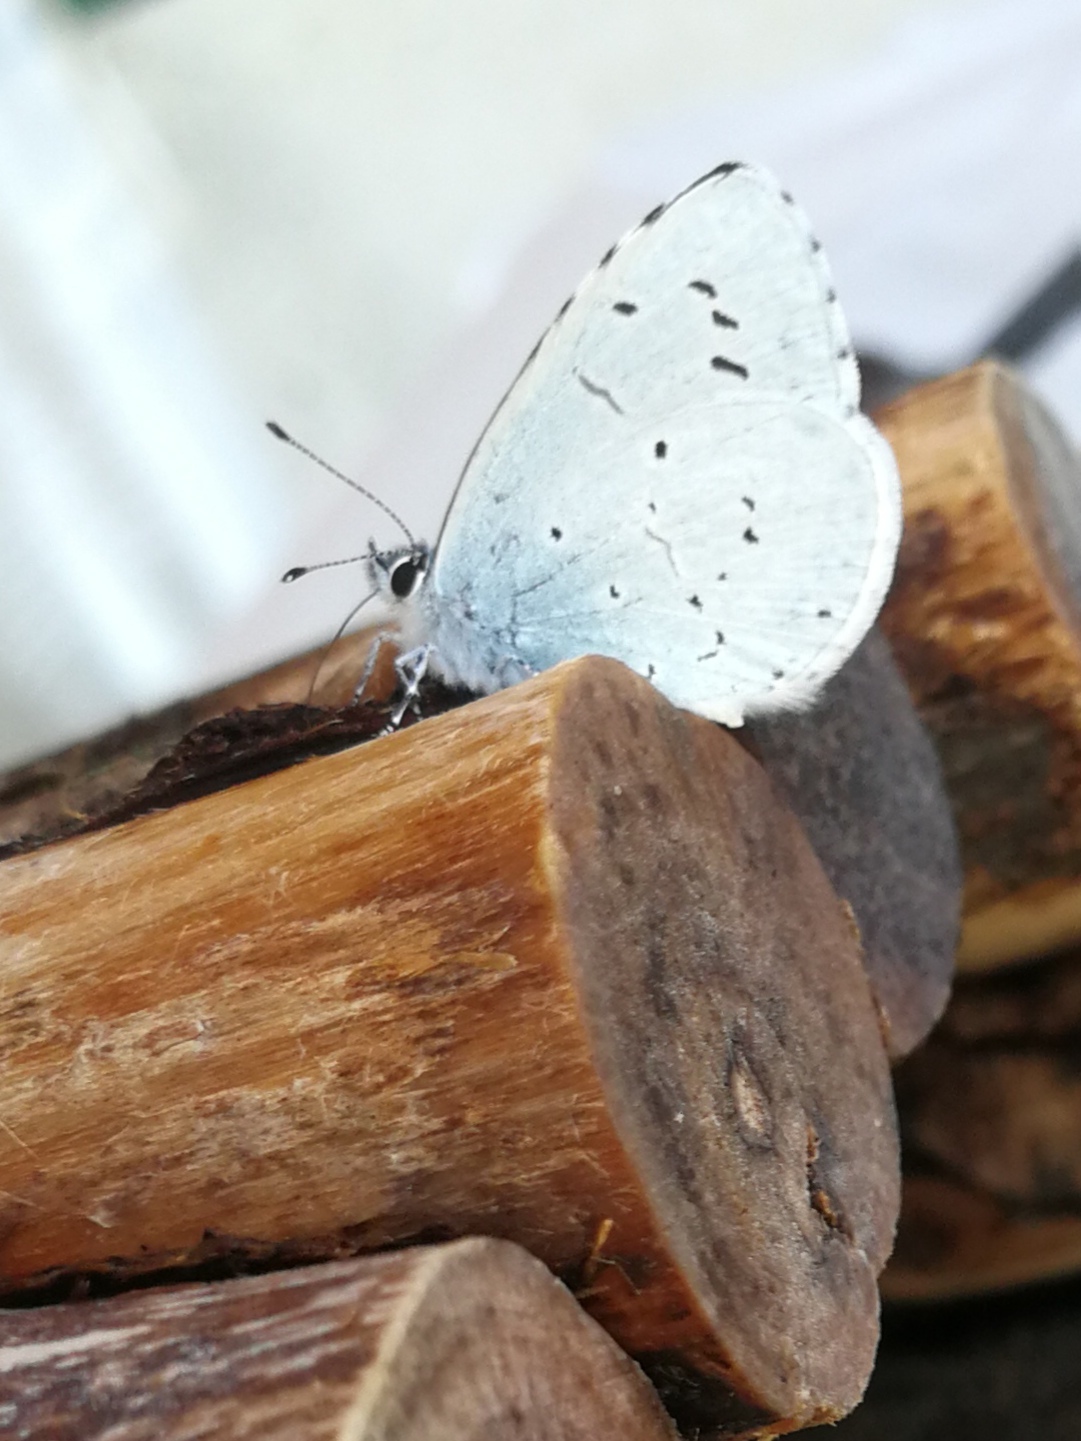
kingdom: Animalia
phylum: Arthropoda
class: Insecta
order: Lepidoptera
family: Lycaenidae
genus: Celastrina
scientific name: Celastrina argiolus
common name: Holly blue
